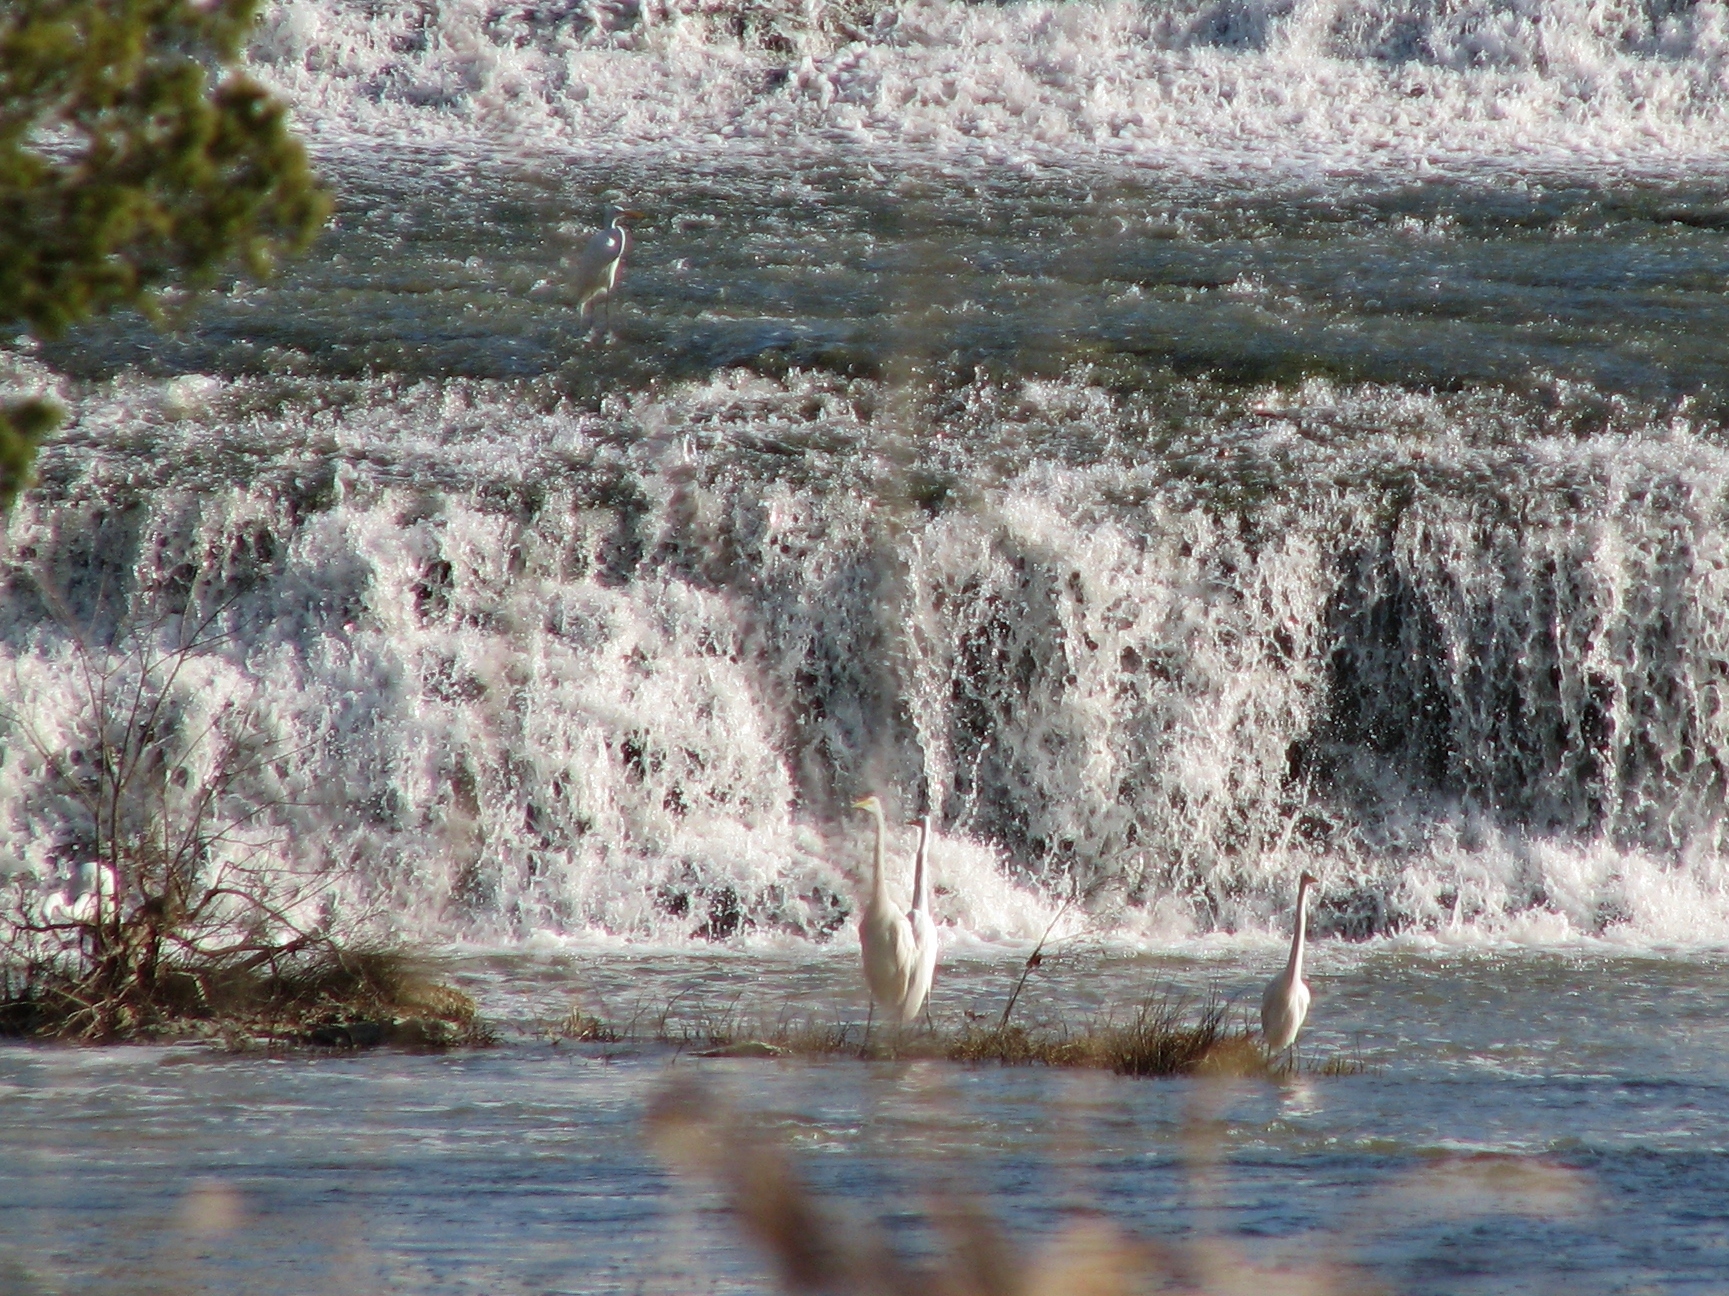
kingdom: Animalia
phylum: Chordata
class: Aves
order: Pelecaniformes
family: Ardeidae
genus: Ardea
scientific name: Ardea alba
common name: Great egret
